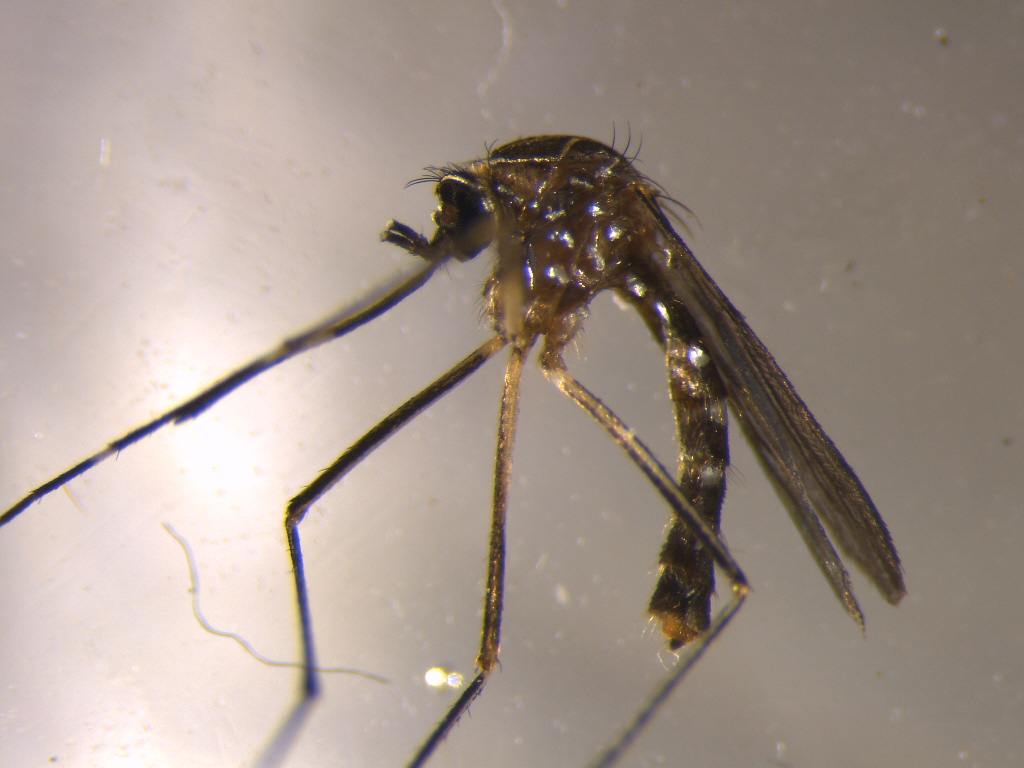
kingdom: Animalia
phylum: Arthropoda
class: Insecta
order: Diptera
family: Culicidae
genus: Aedes
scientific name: Aedes notoscriptus
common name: Australian backyard mosquito
